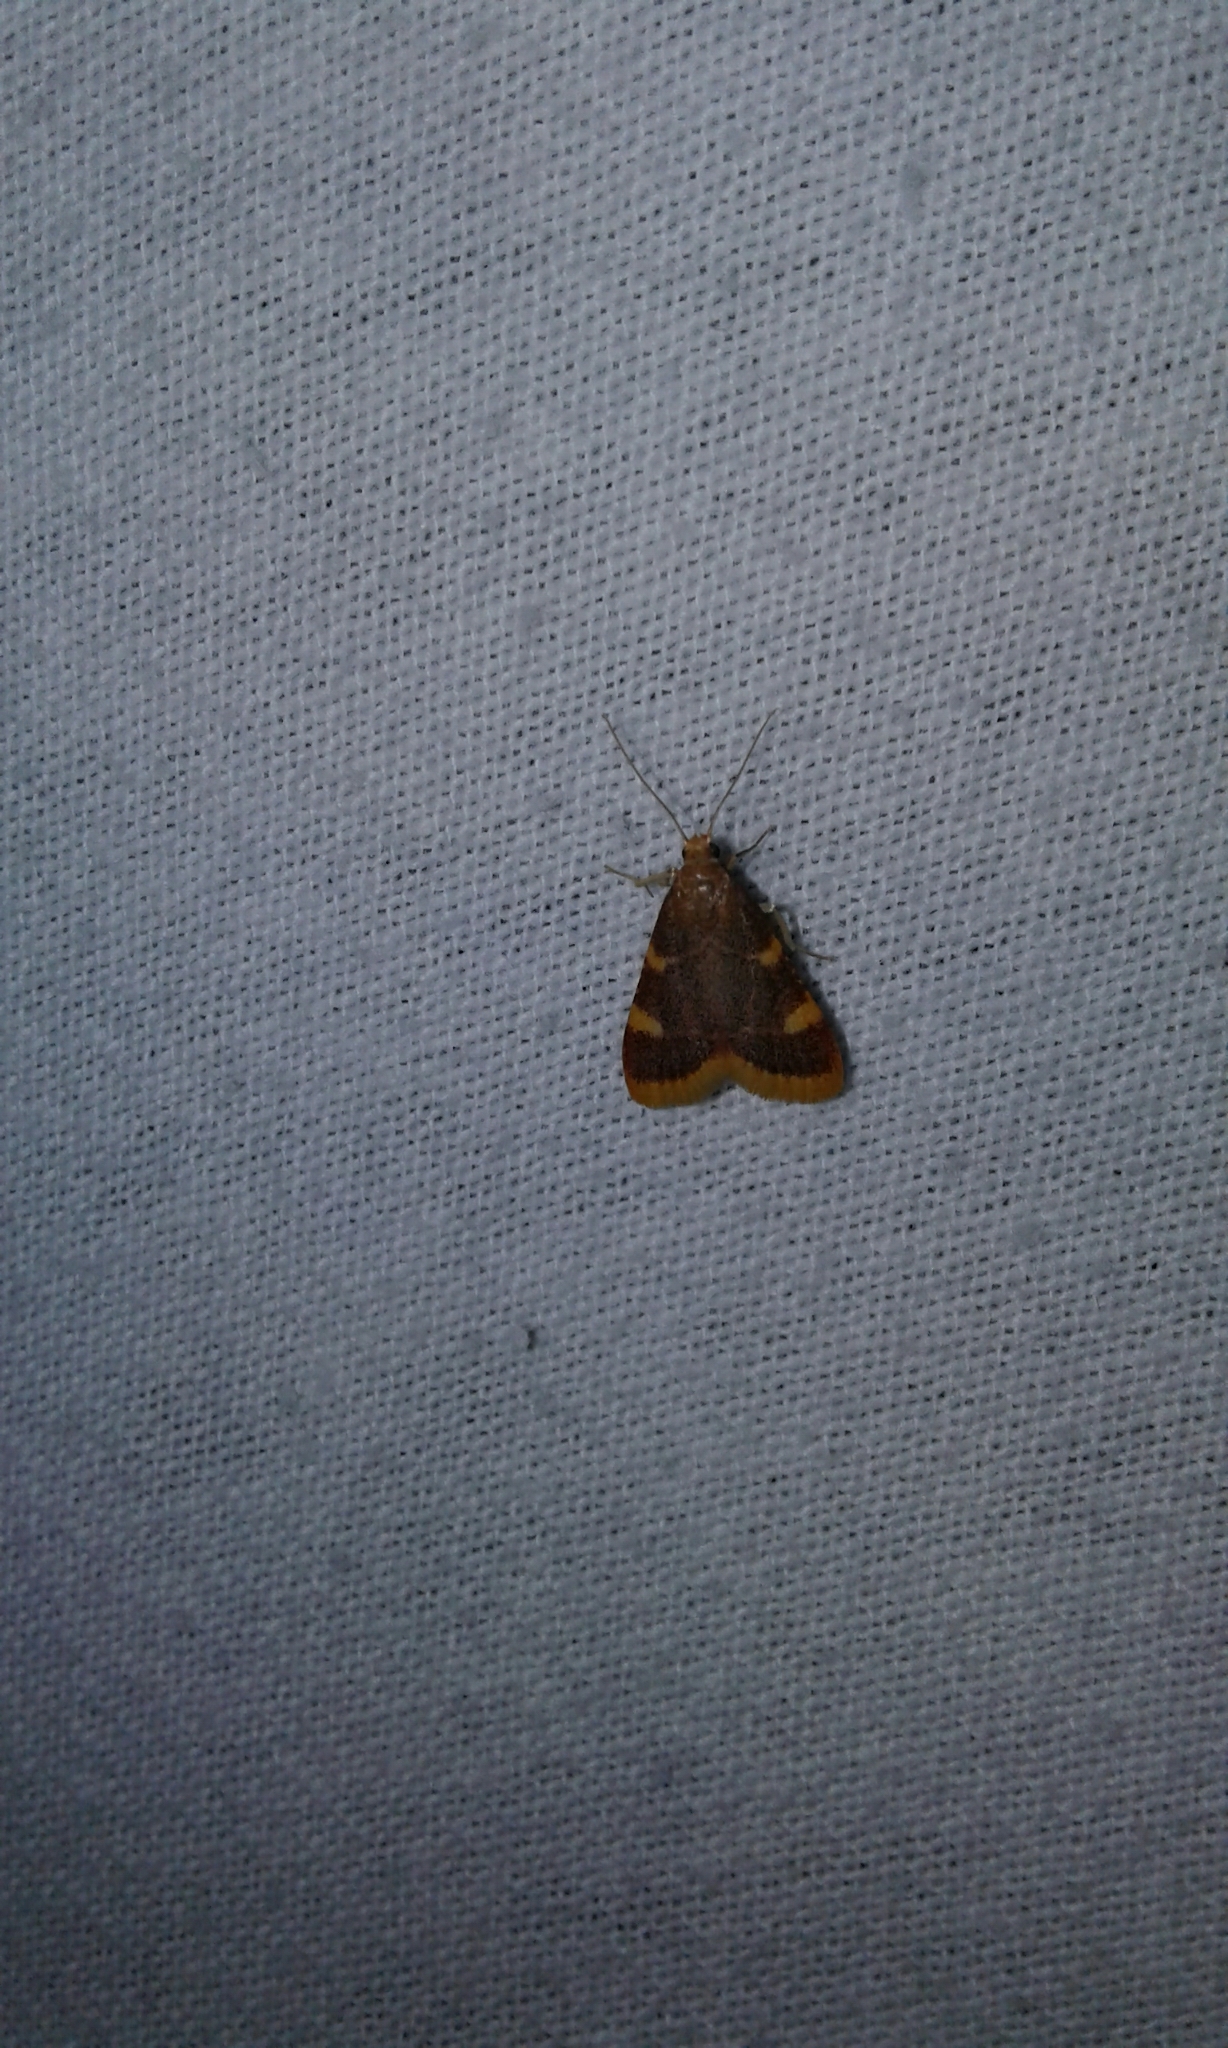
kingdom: Animalia
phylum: Arthropoda
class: Insecta
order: Lepidoptera
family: Pyralidae
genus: Hypsopygia
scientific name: Hypsopygia costalis
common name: Gold triangle
